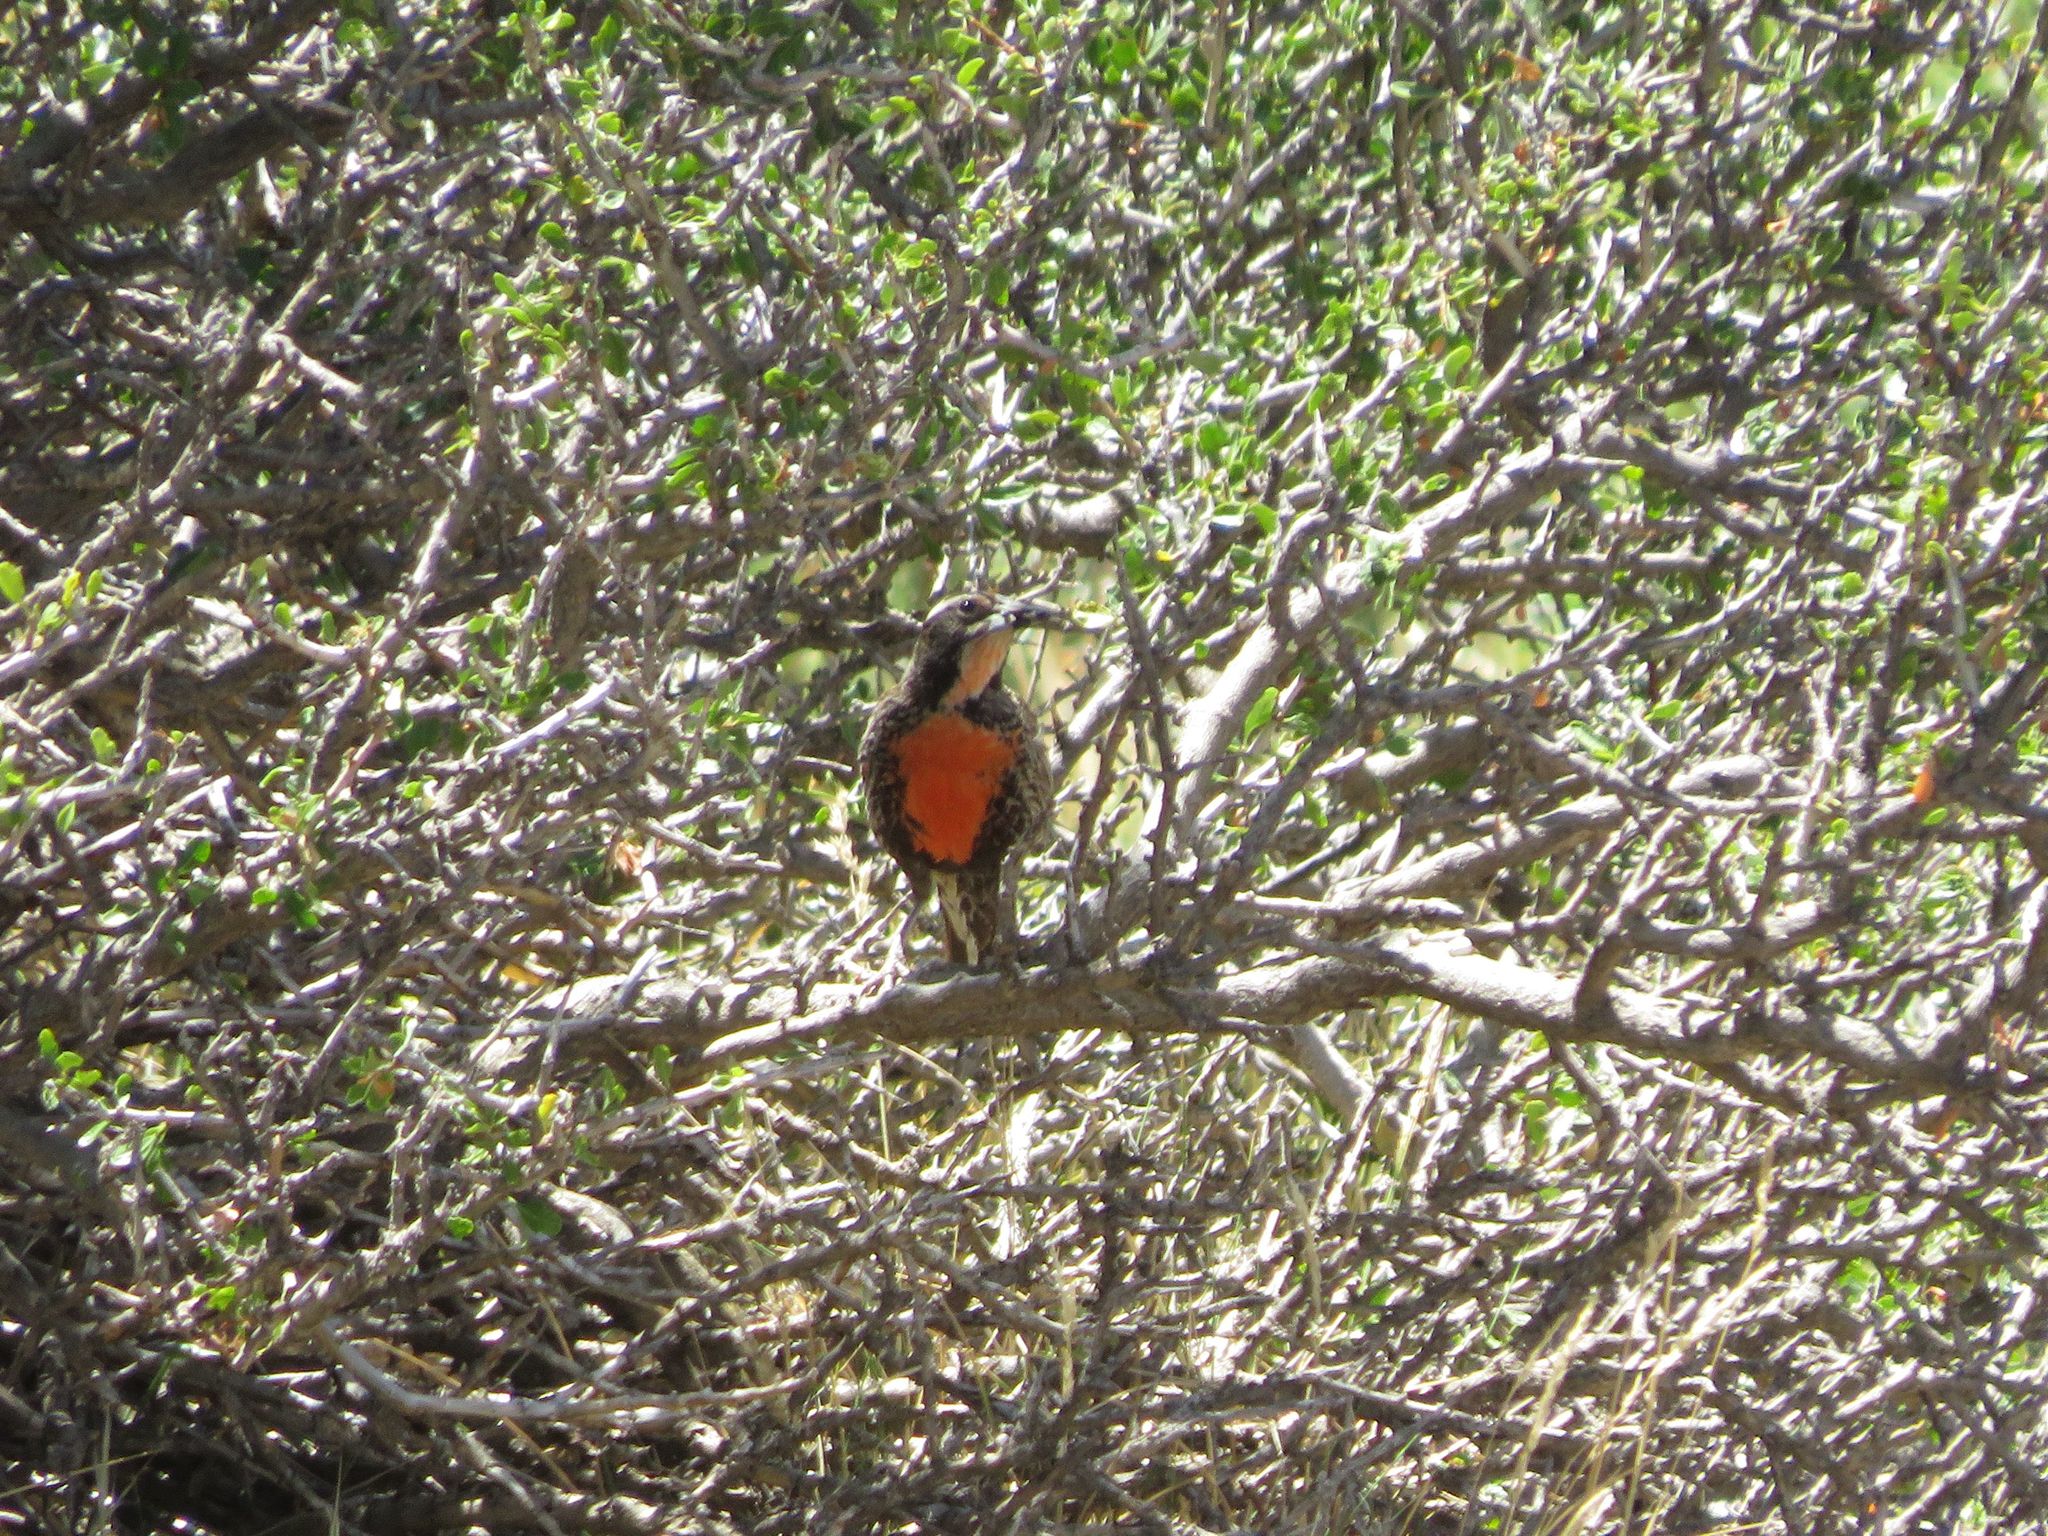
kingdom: Animalia
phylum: Chordata
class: Aves
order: Passeriformes
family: Icteridae
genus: Sturnella
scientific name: Sturnella loyca
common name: Long-tailed meadowlark
